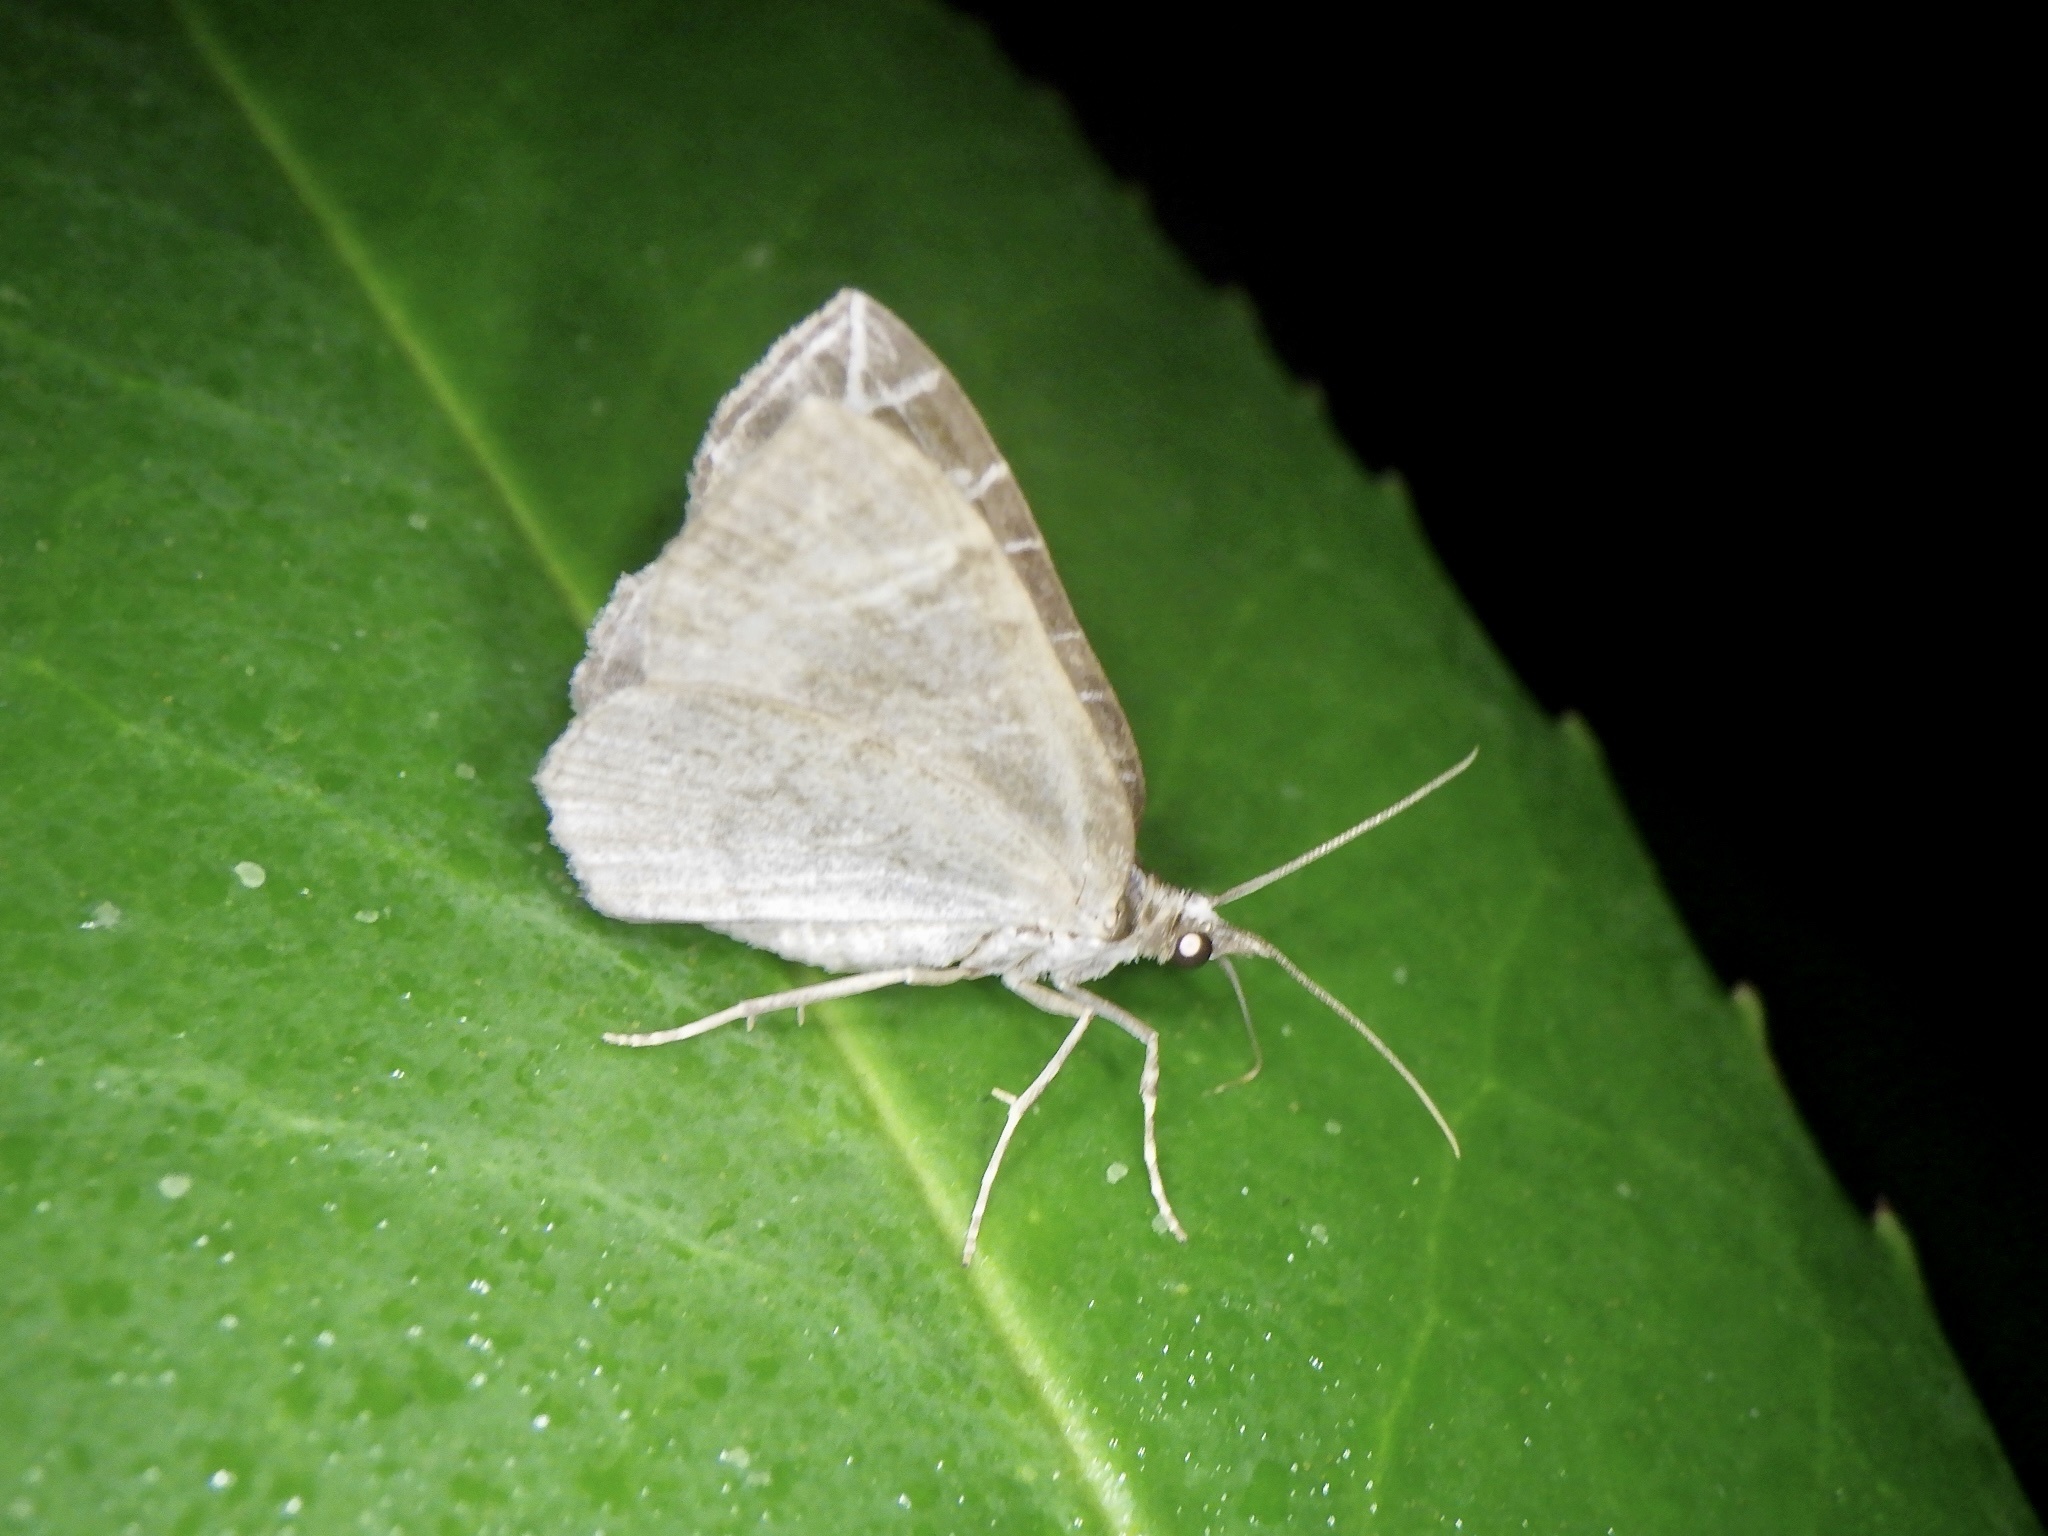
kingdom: Animalia
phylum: Arthropoda
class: Insecta
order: Lepidoptera
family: Geometridae
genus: Evecliptopera
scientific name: Evecliptopera illitata
